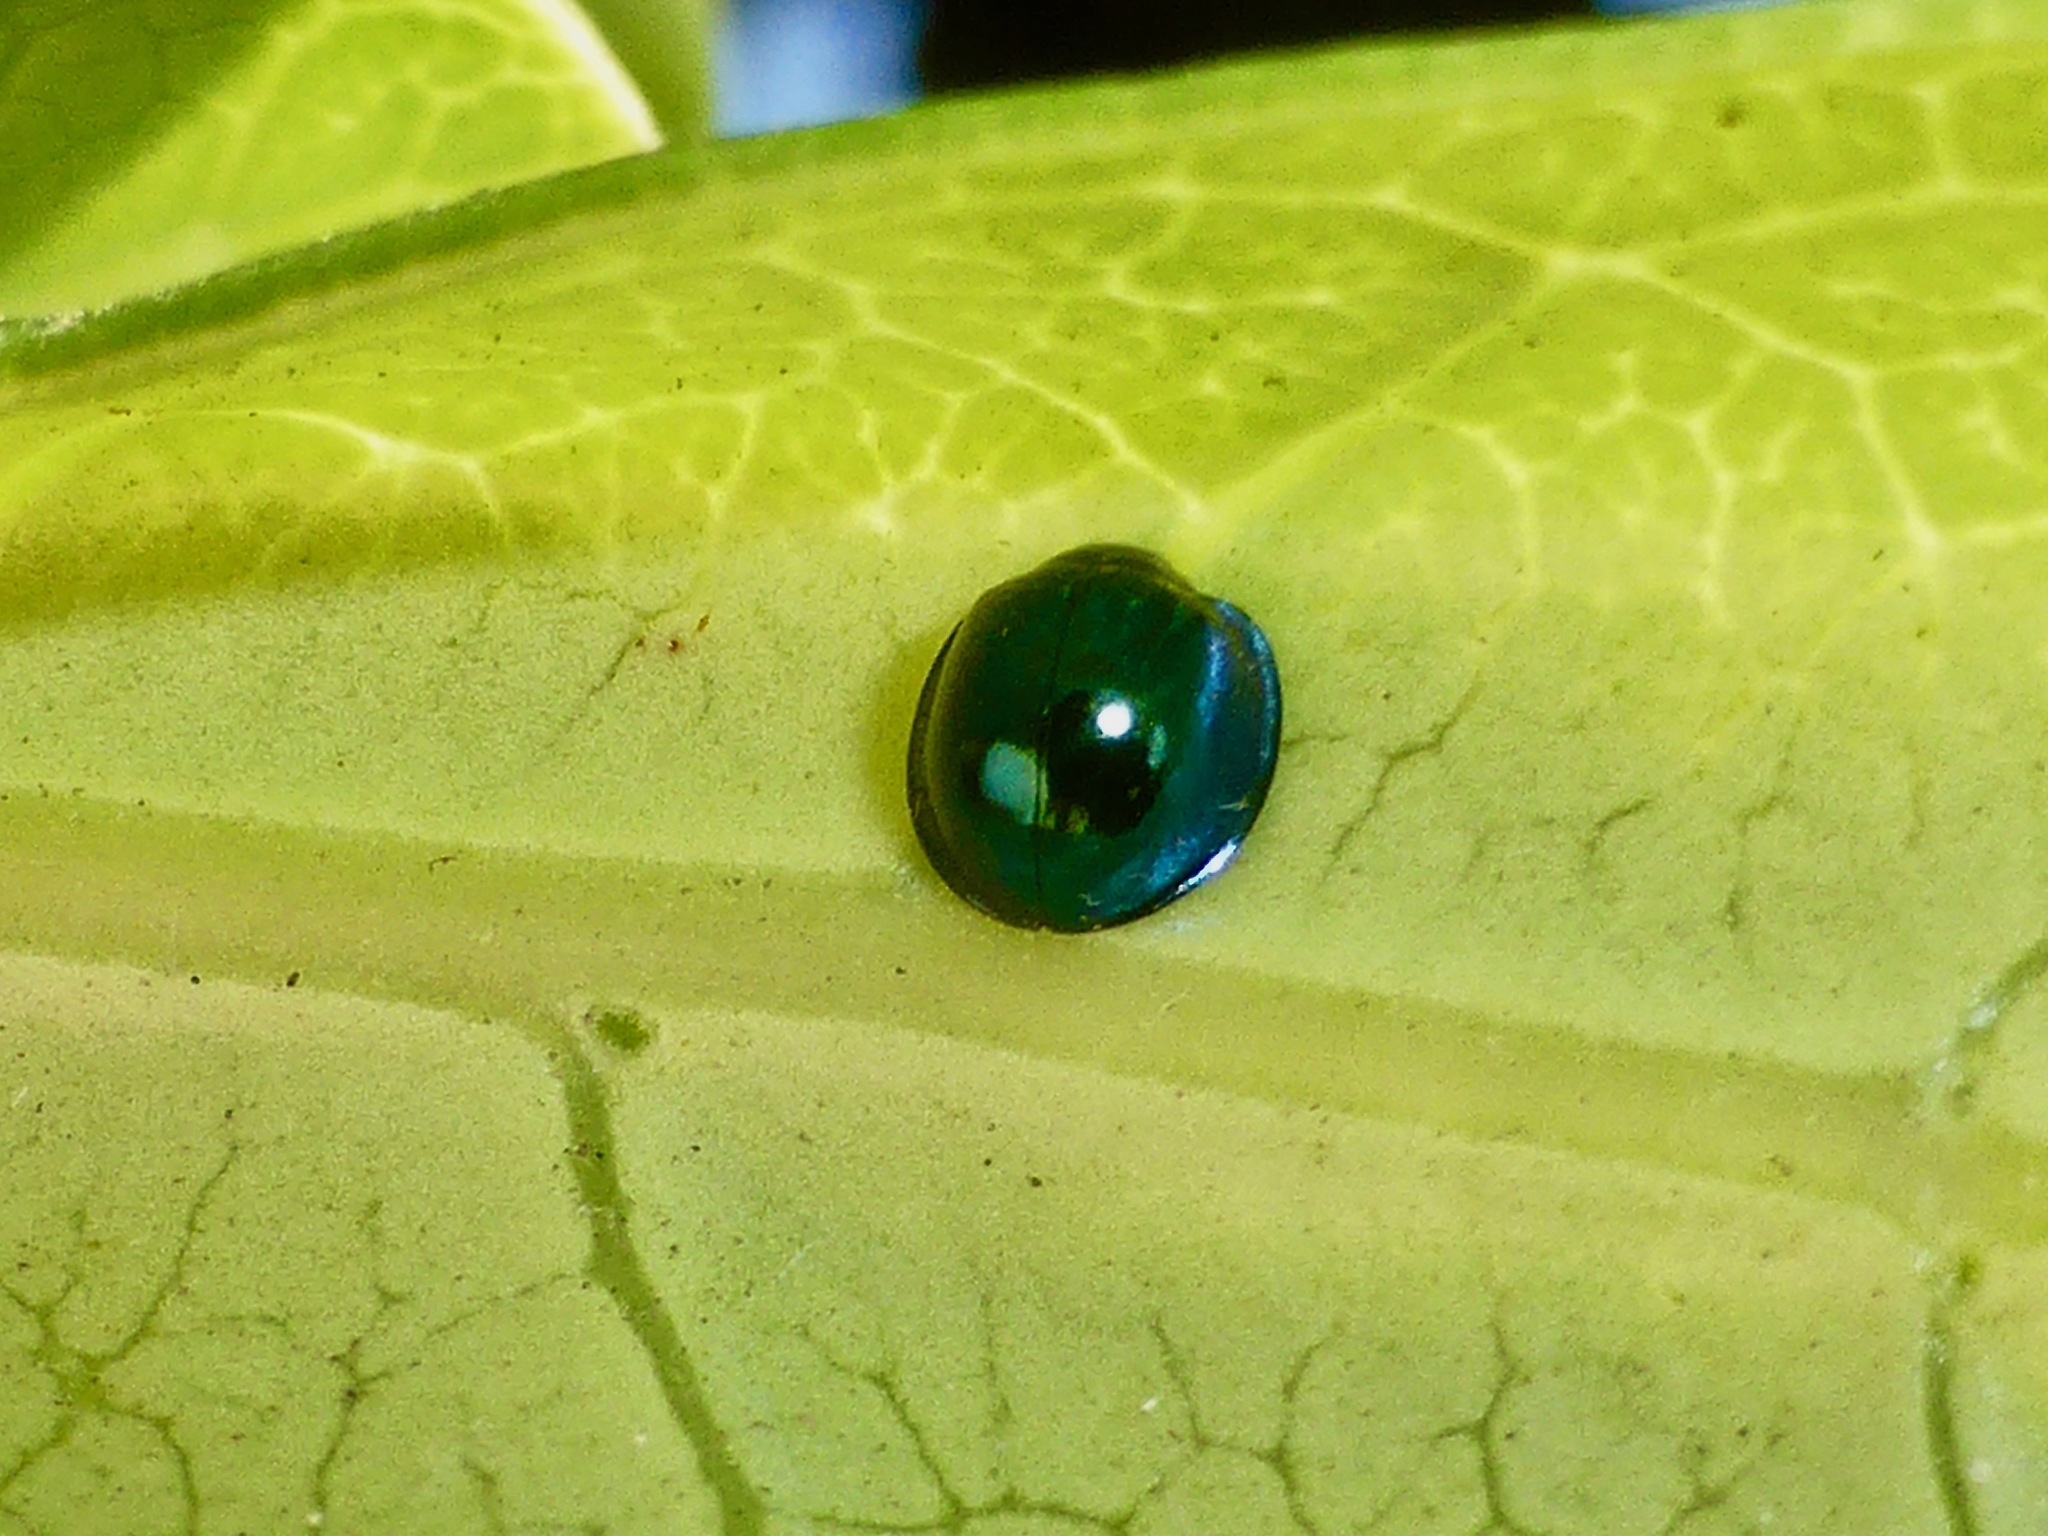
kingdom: Animalia
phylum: Arthropoda
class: Insecta
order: Coleoptera
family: Coccinellidae
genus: Halmus
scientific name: Halmus chalybeus
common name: Steel blue ladybird beetle
